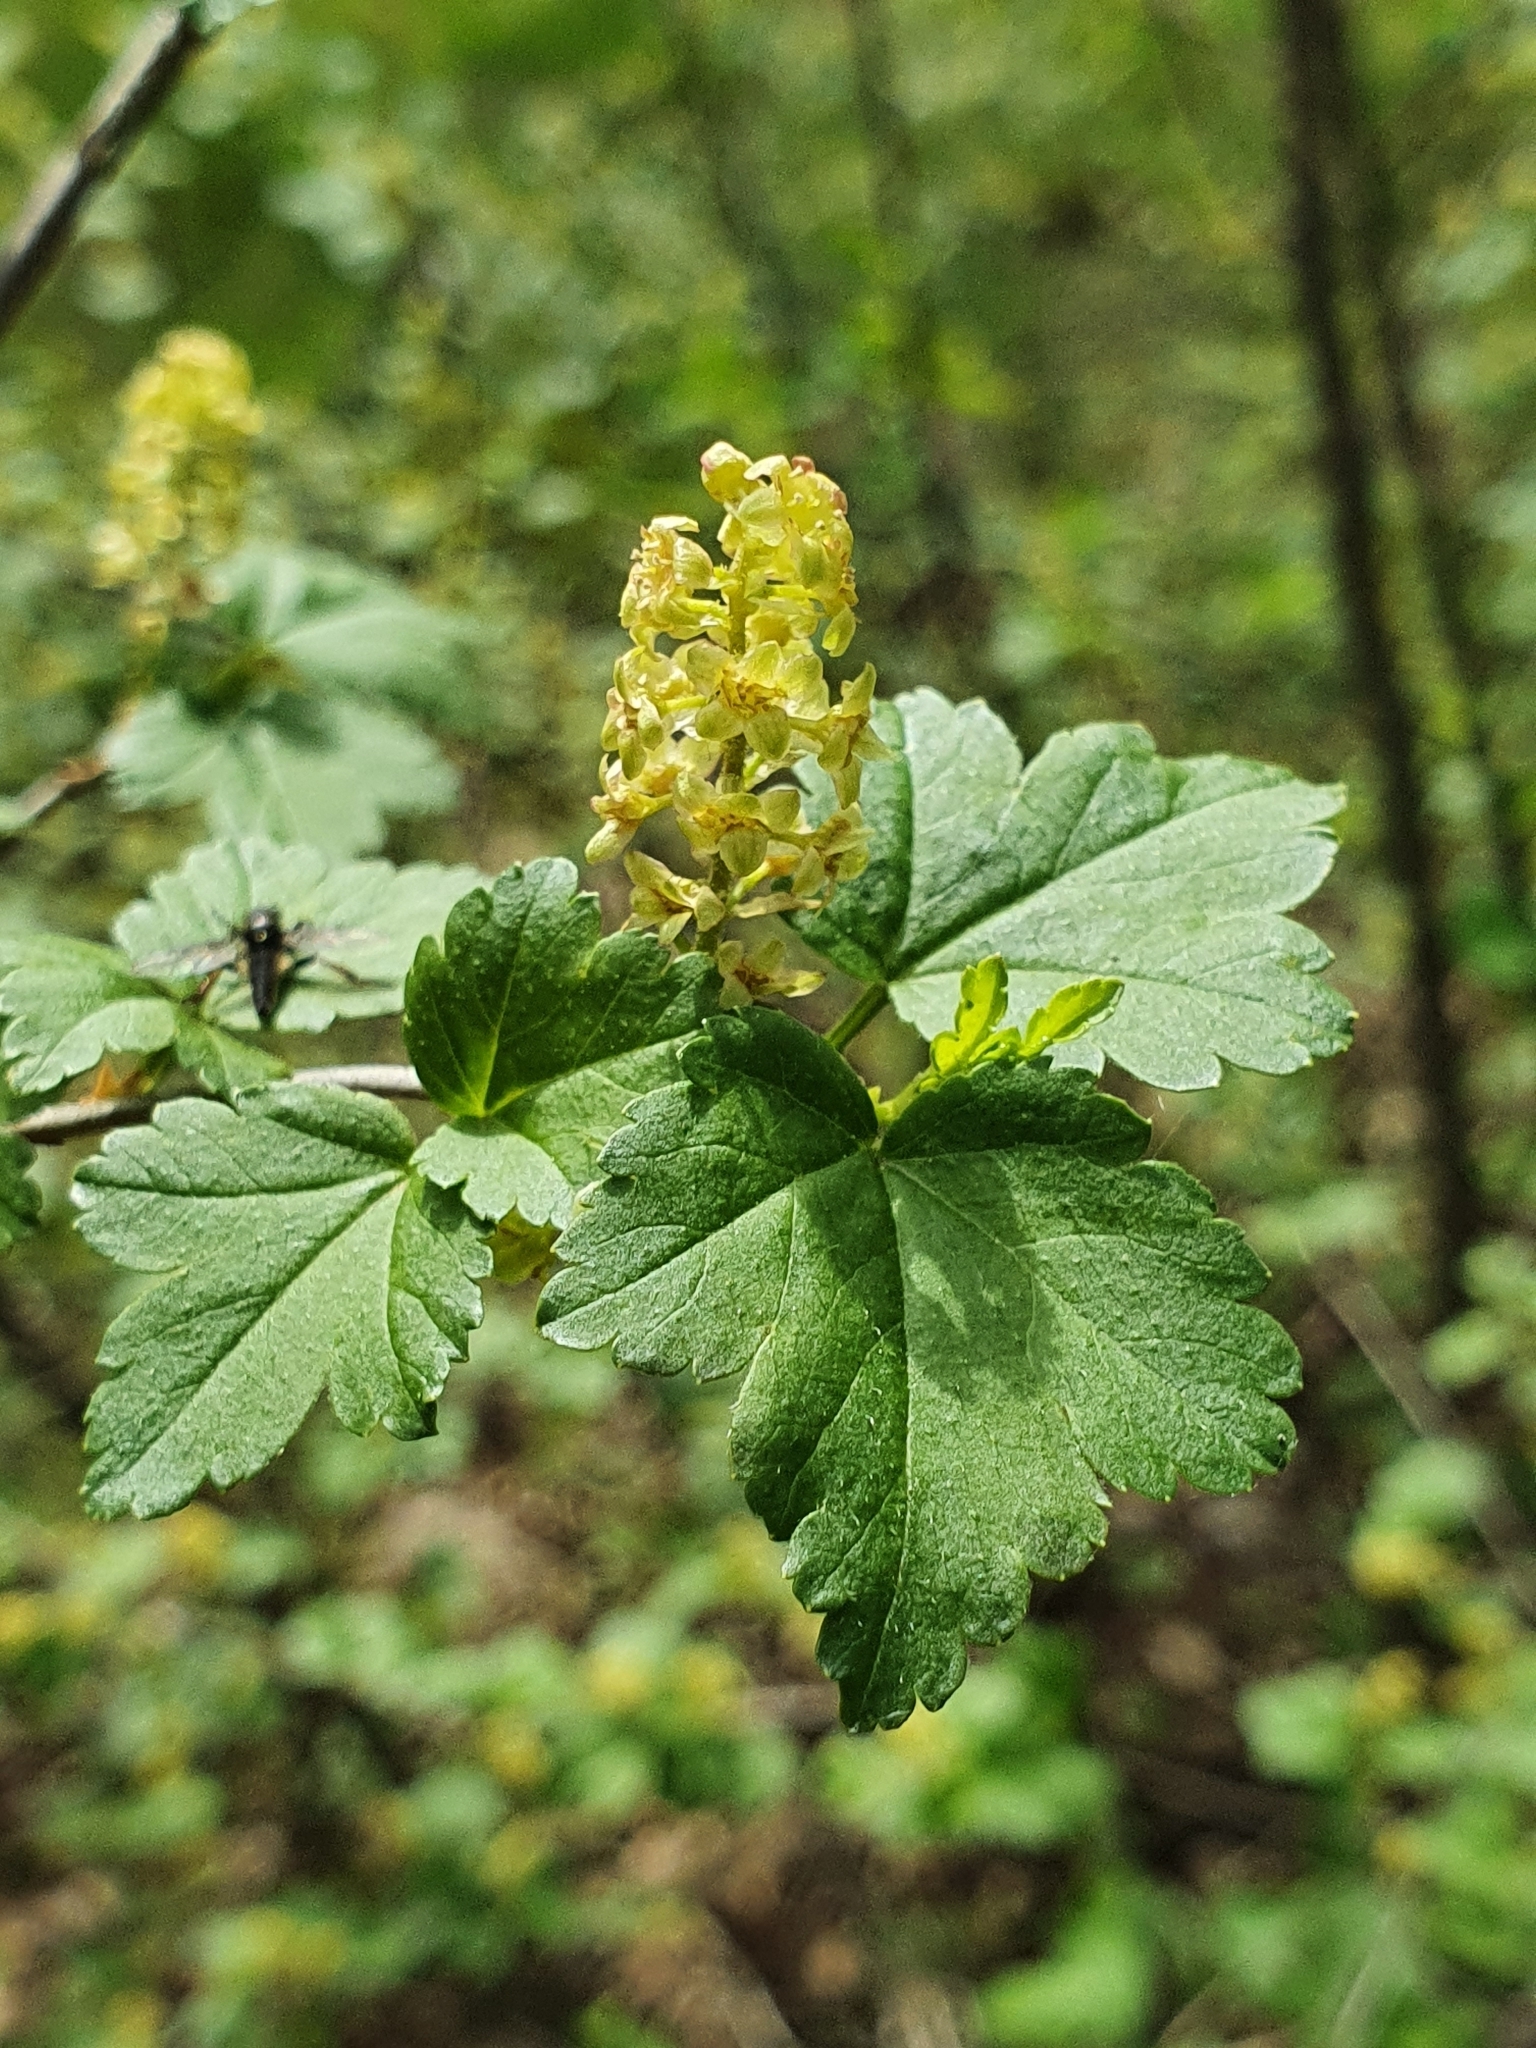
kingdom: Plantae
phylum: Tracheophyta
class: Magnoliopsida
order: Saxifragales
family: Grossulariaceae
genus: Ribes
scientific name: Ribes alpinum
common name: Alpine currant
